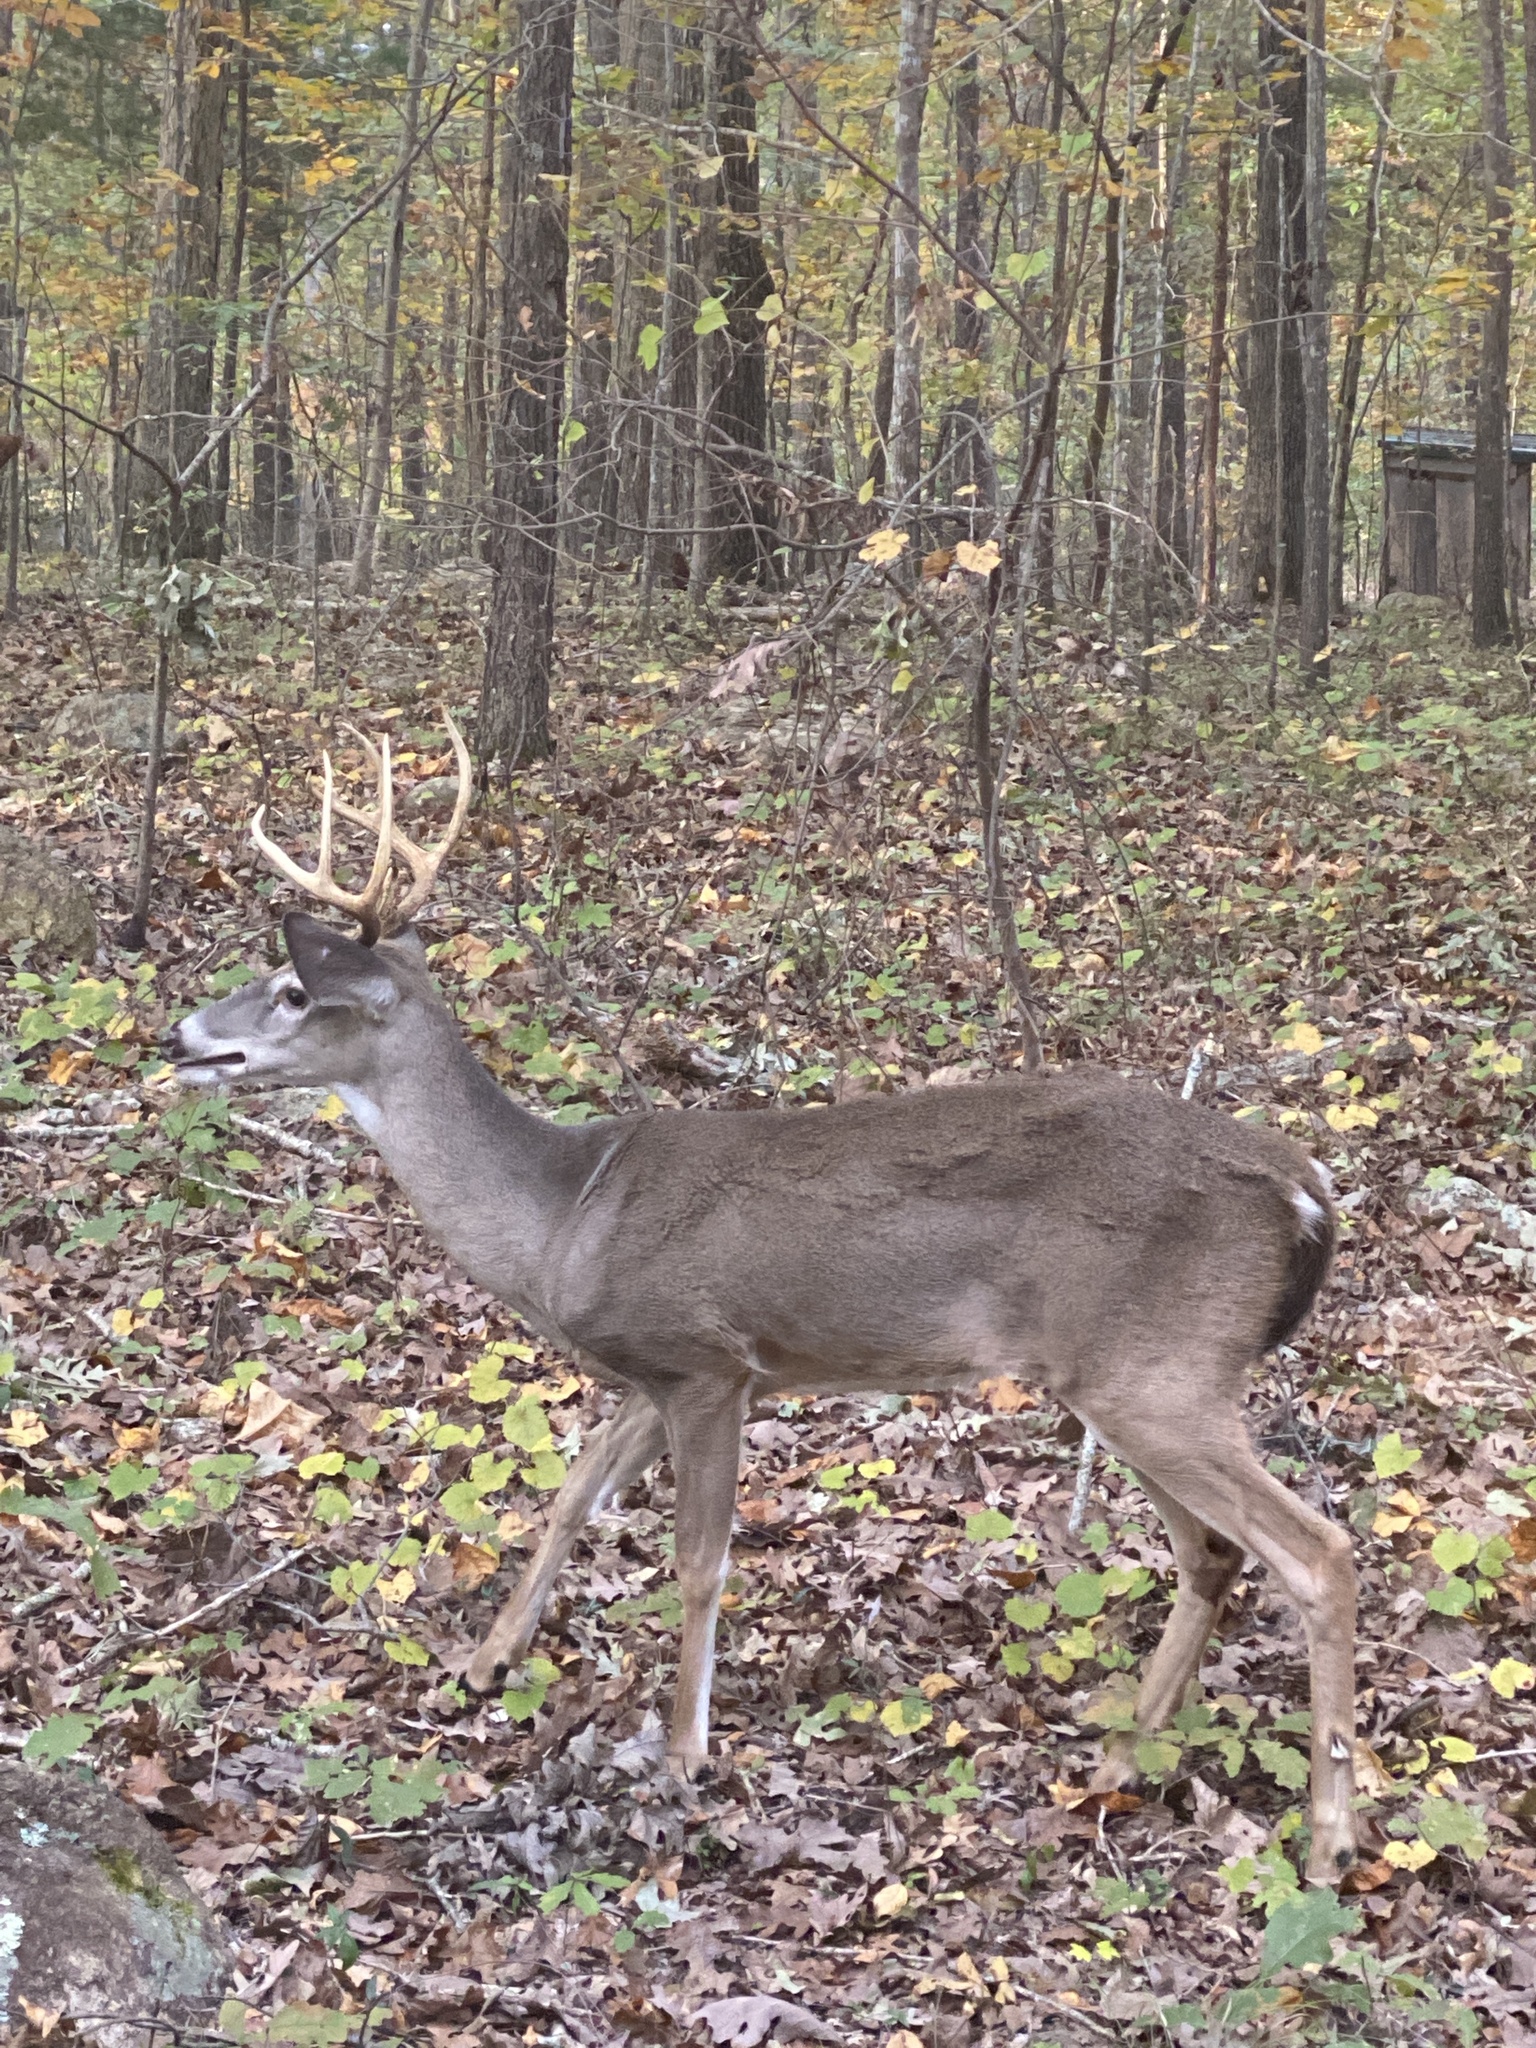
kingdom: Animalia
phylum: Chordata
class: Mammalia
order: Artiodactyla
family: Cervidae
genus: Odocoileus
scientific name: Odocoileus virginianus
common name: White-tailed deer
